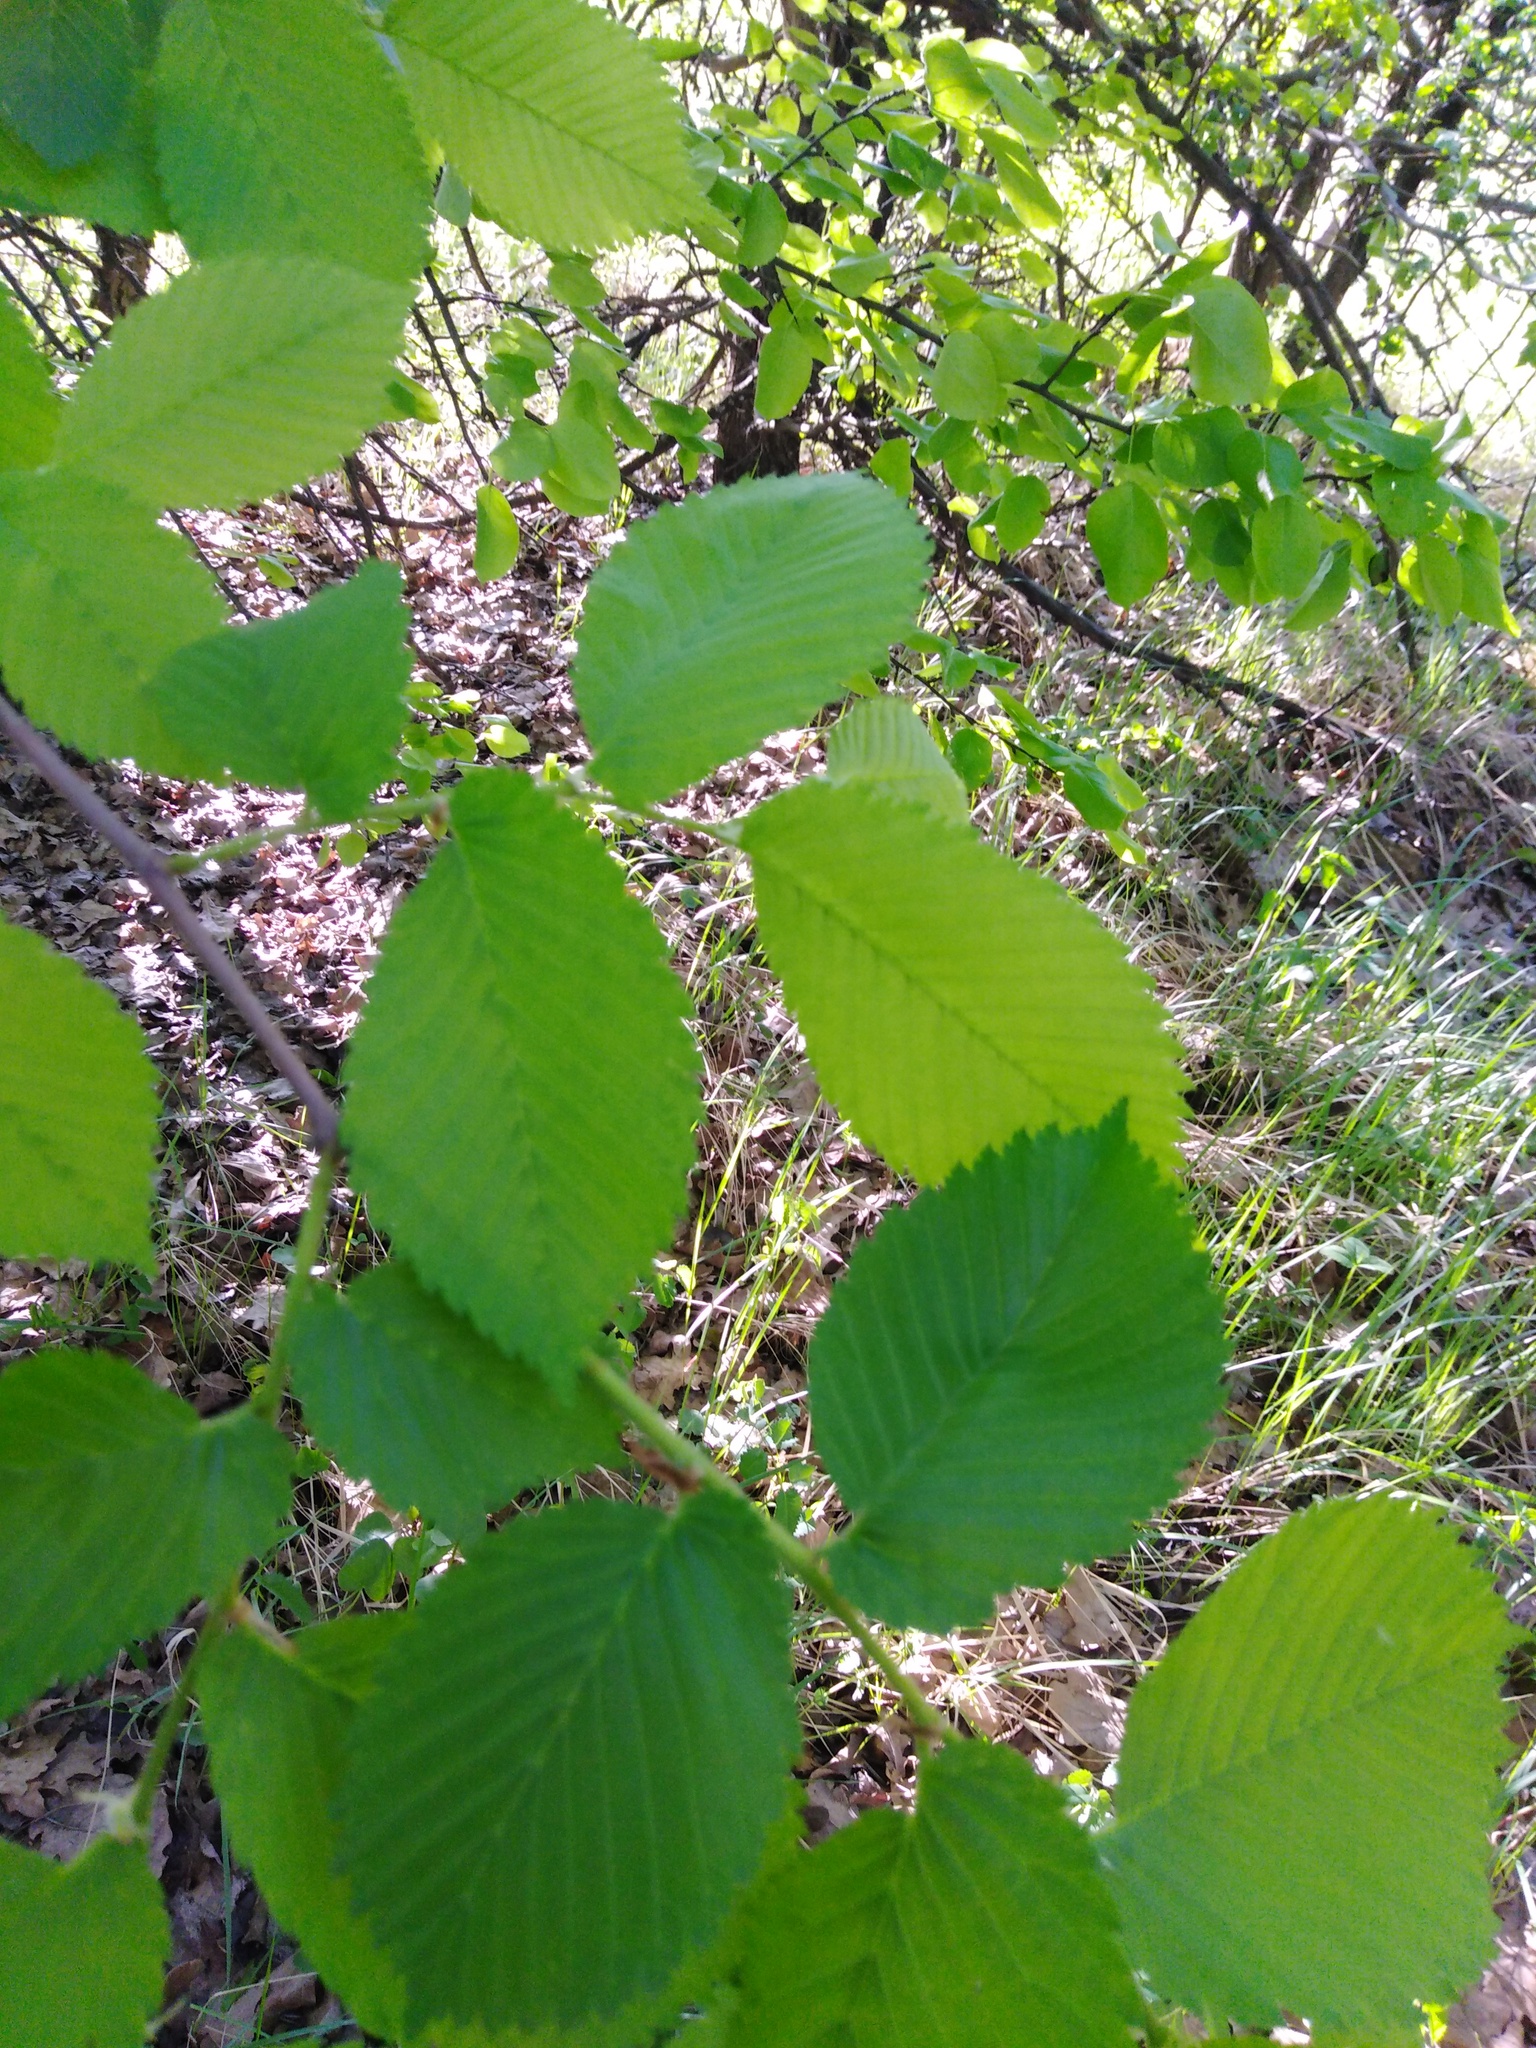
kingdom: Plantae
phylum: Tracheophyta
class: Magnoliopsida
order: Rosales
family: Ulmaceae
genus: Ulmus
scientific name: Ulmus laevis
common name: European white-elm
